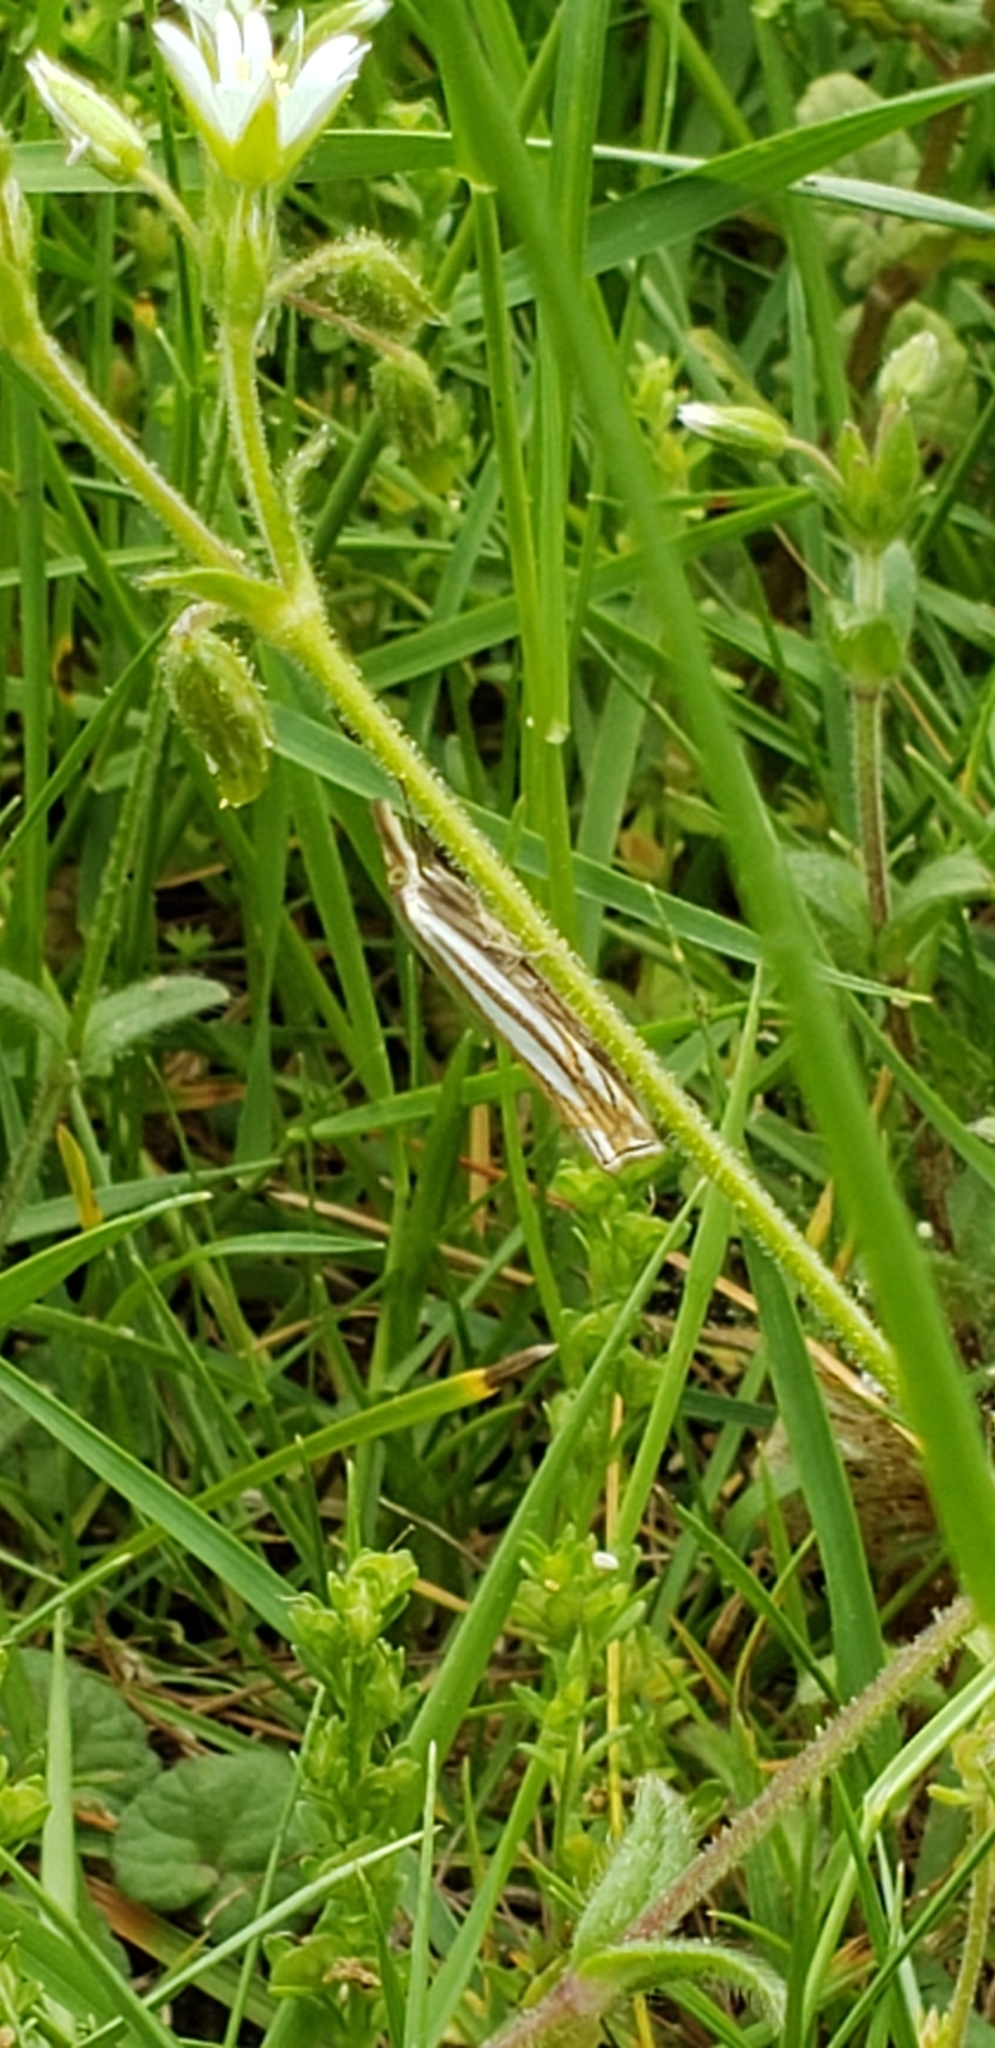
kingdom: Animalia
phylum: Arthropoda
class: Insecta
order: Lepidoptera
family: Crambidae
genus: Crambus
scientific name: Crambus laqueatellus
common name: Eastern grass-veneer
